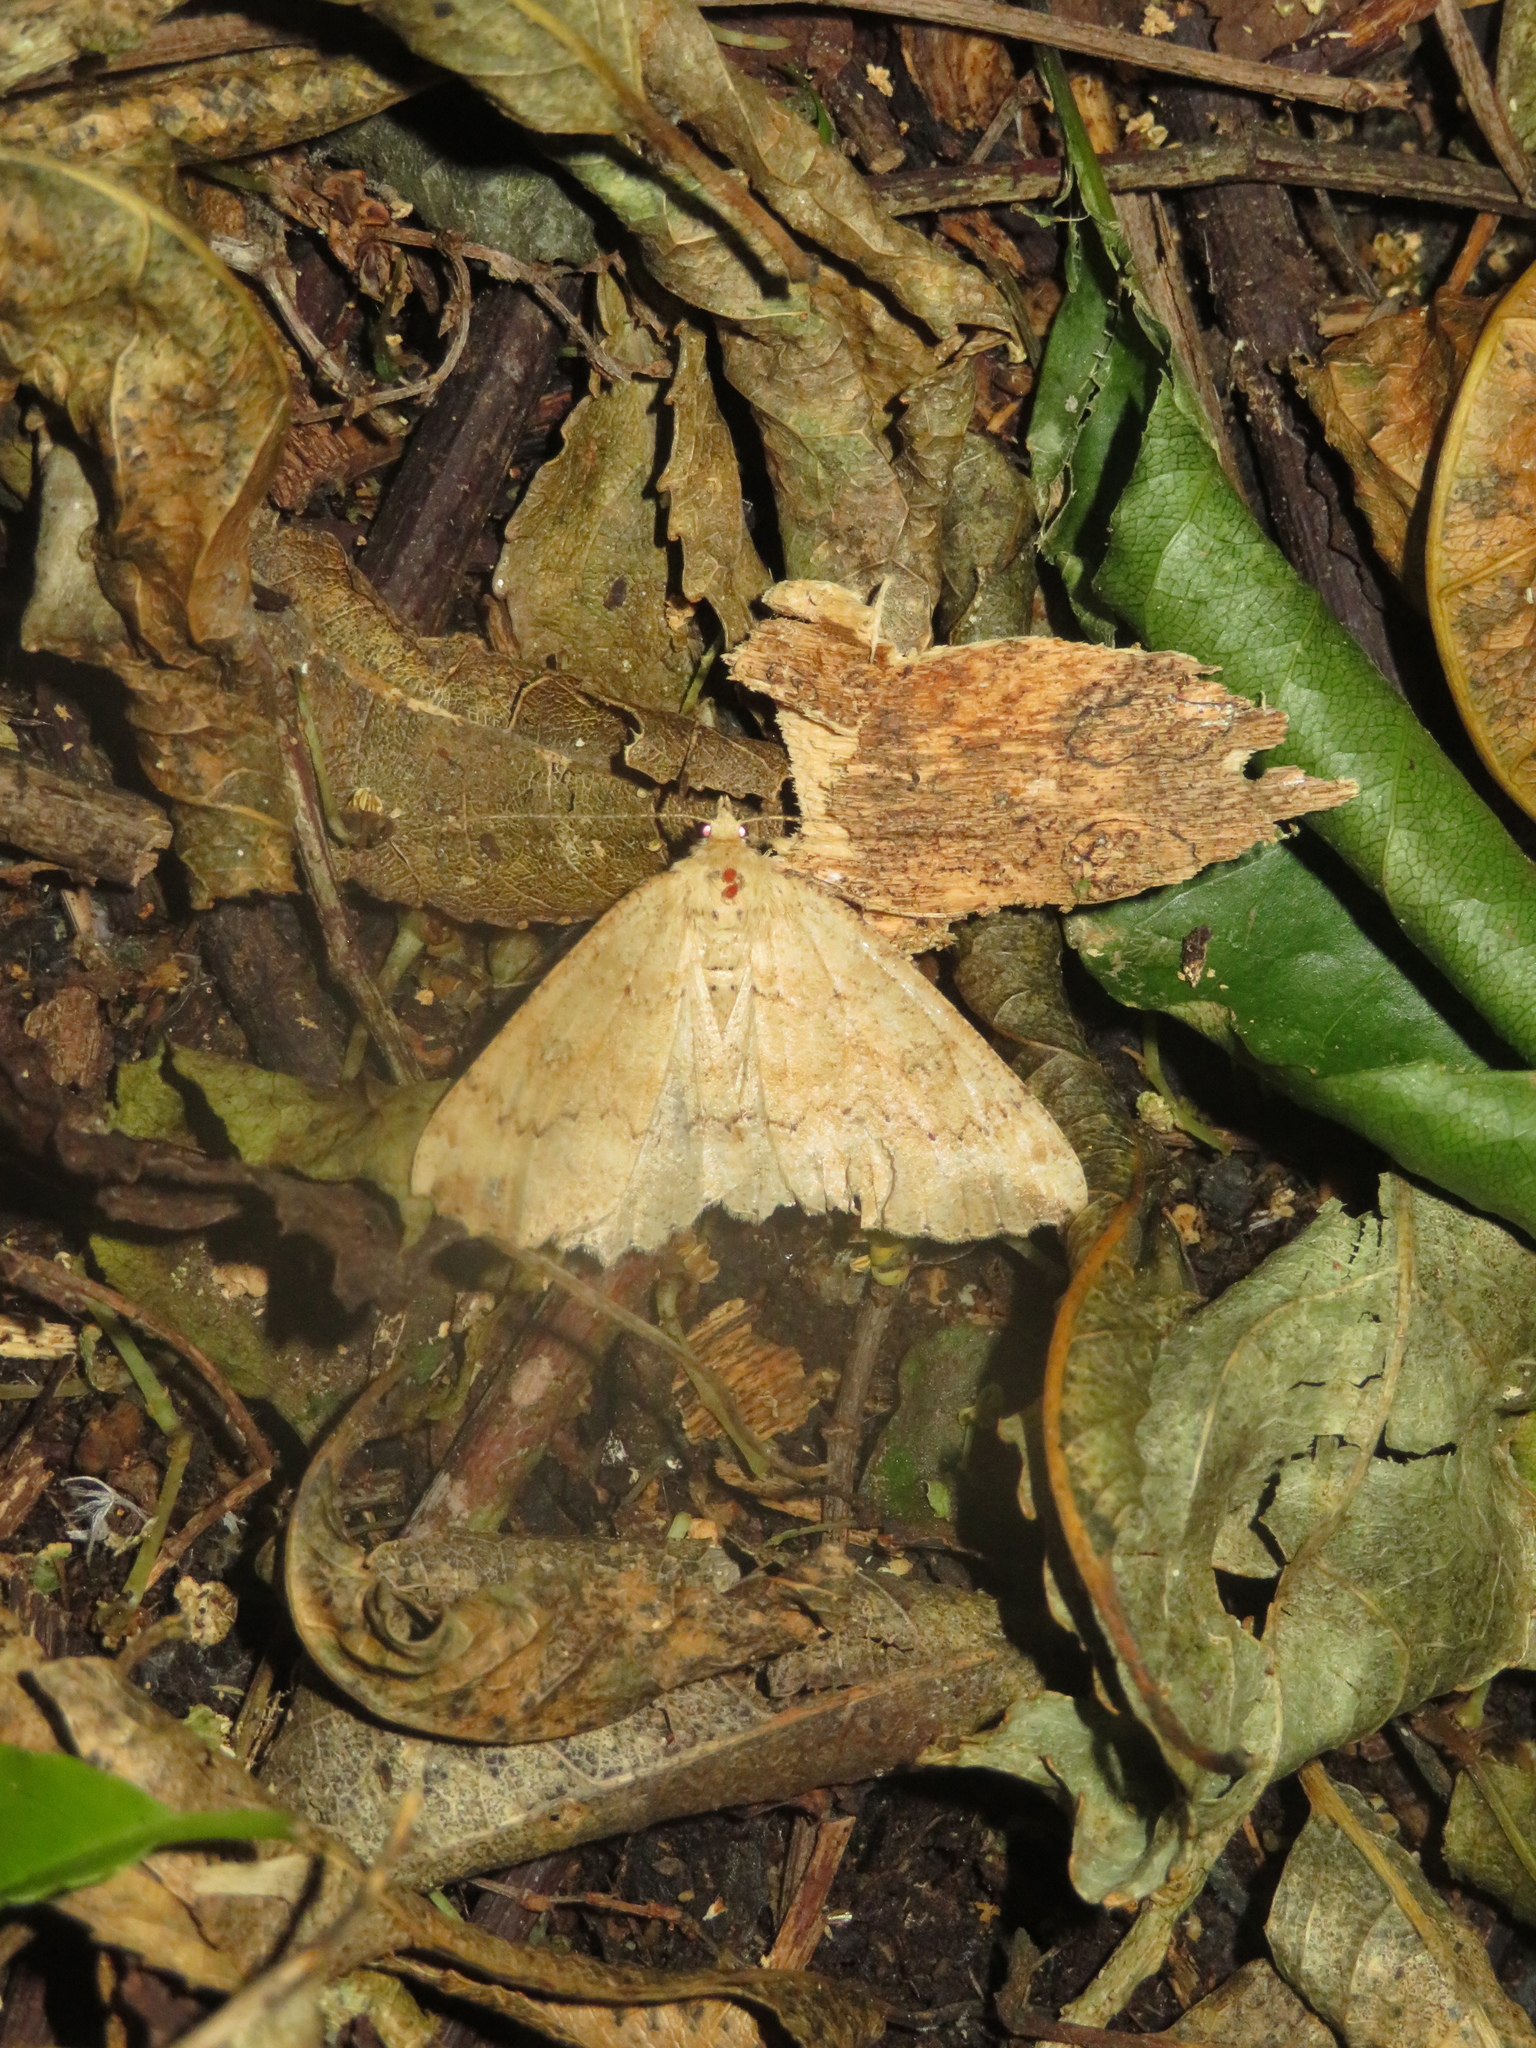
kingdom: Animalia
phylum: Arthropoda
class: Insecta
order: Lepidoptera
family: Geometridae
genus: Cleora
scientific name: Cleora scriptaria
